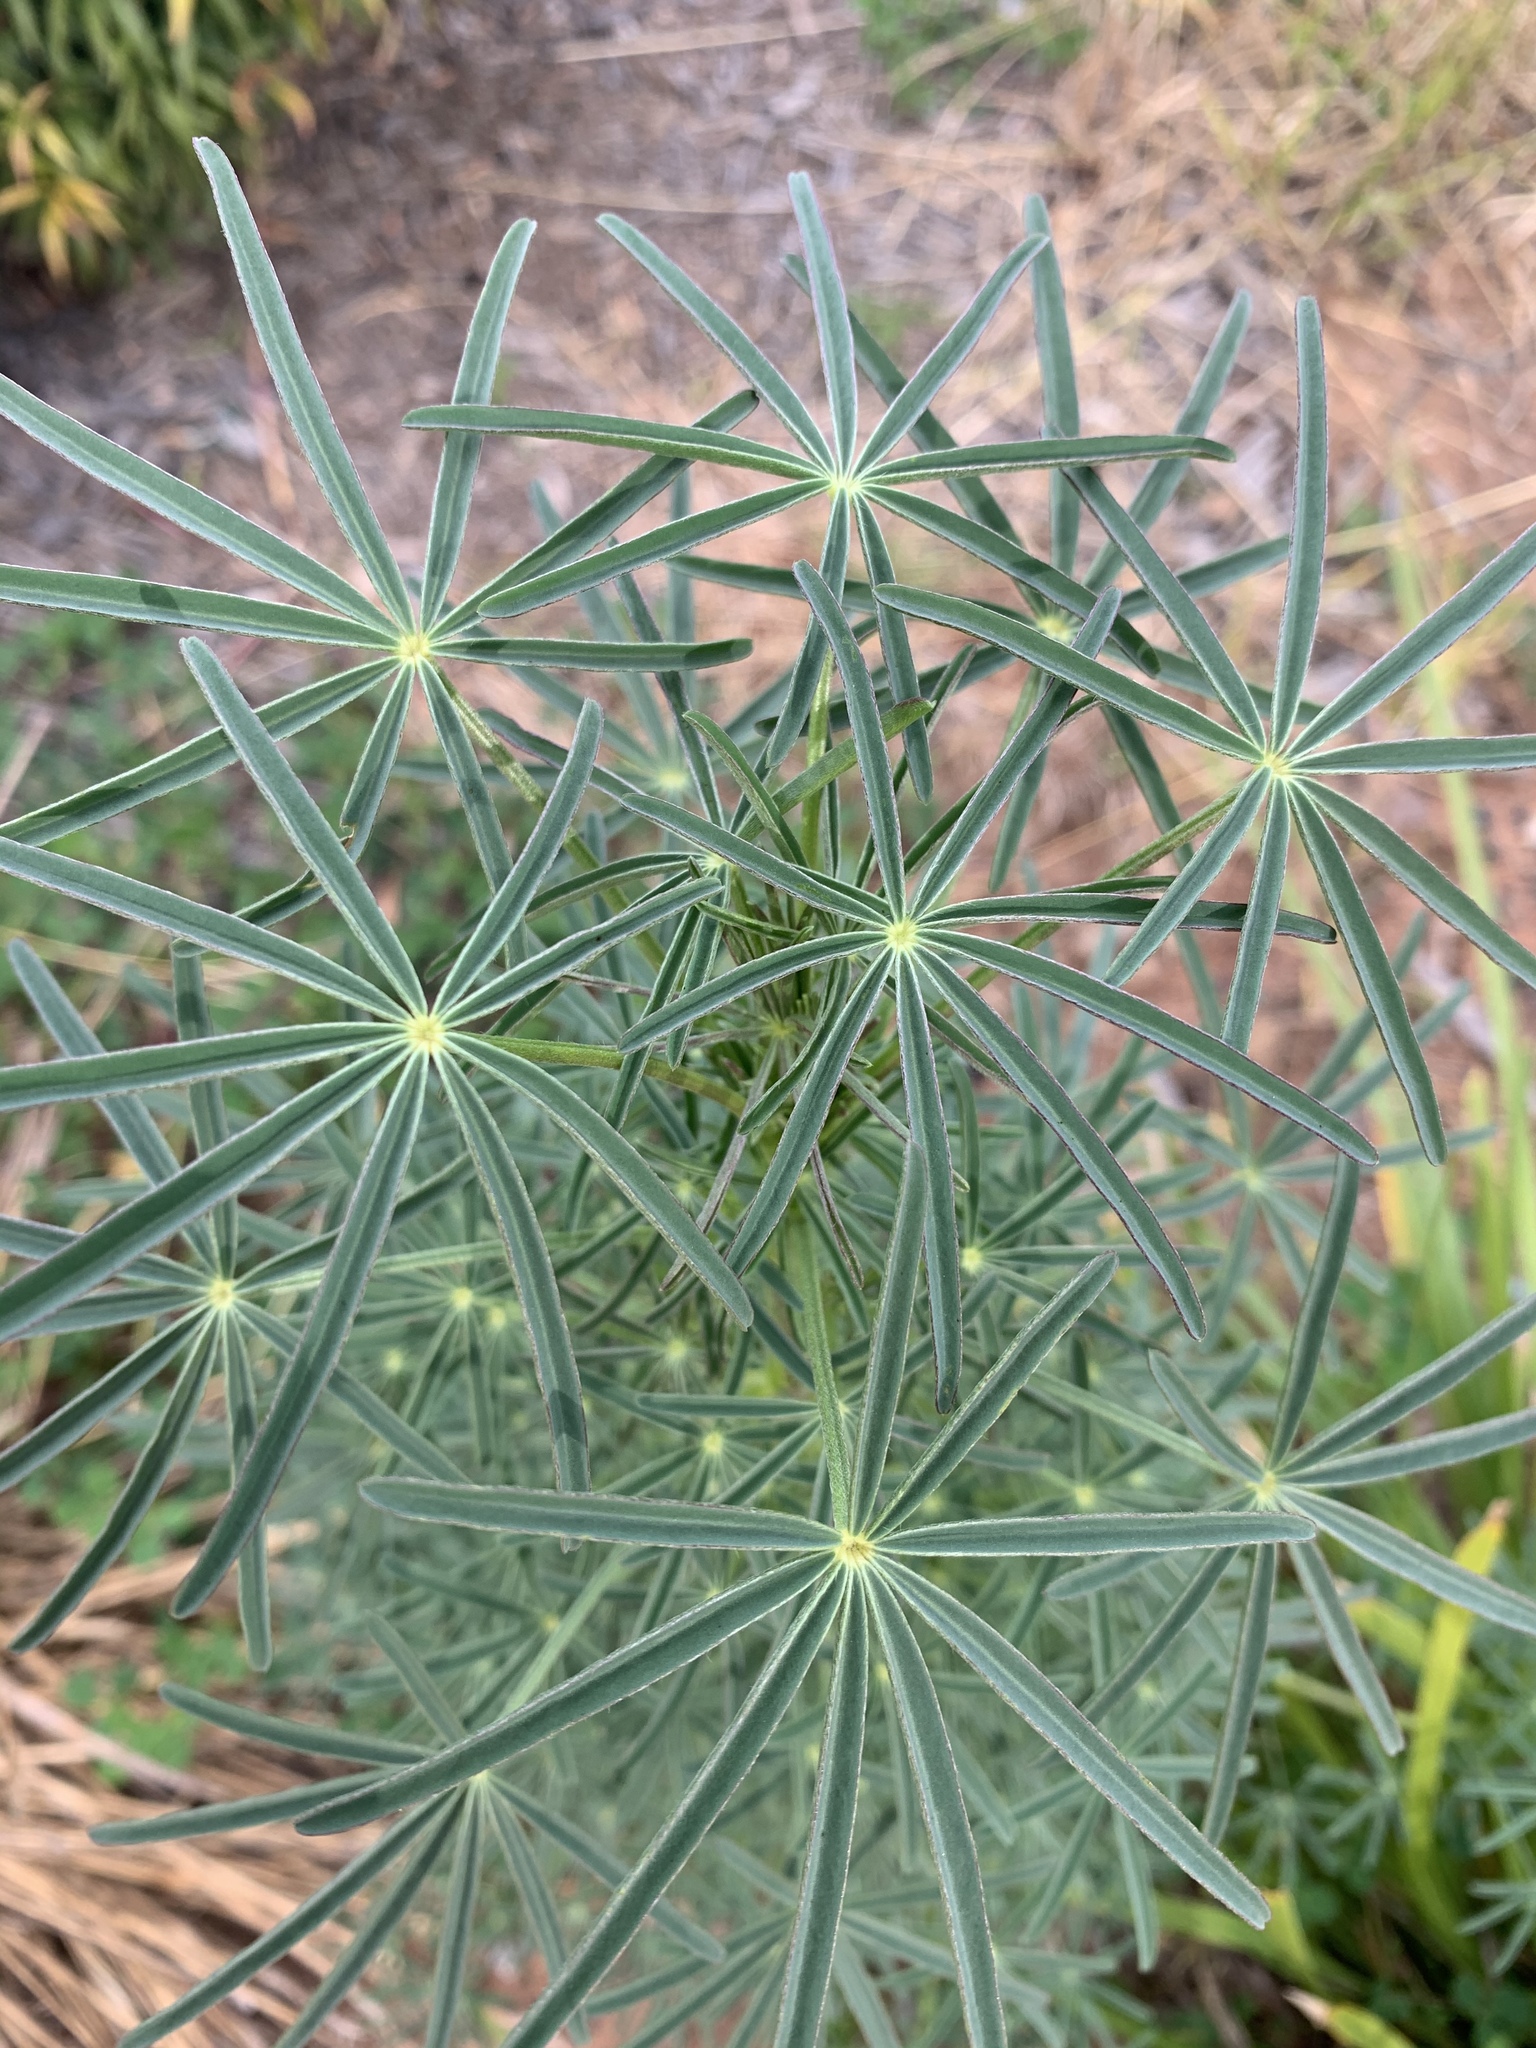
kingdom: Plantae
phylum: Tracheophyta
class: Magnoliopsida
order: Fabales
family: Fabaceae
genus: Lupinus
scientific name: Lupinus angustifolius
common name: Narrow-leaved lupin
